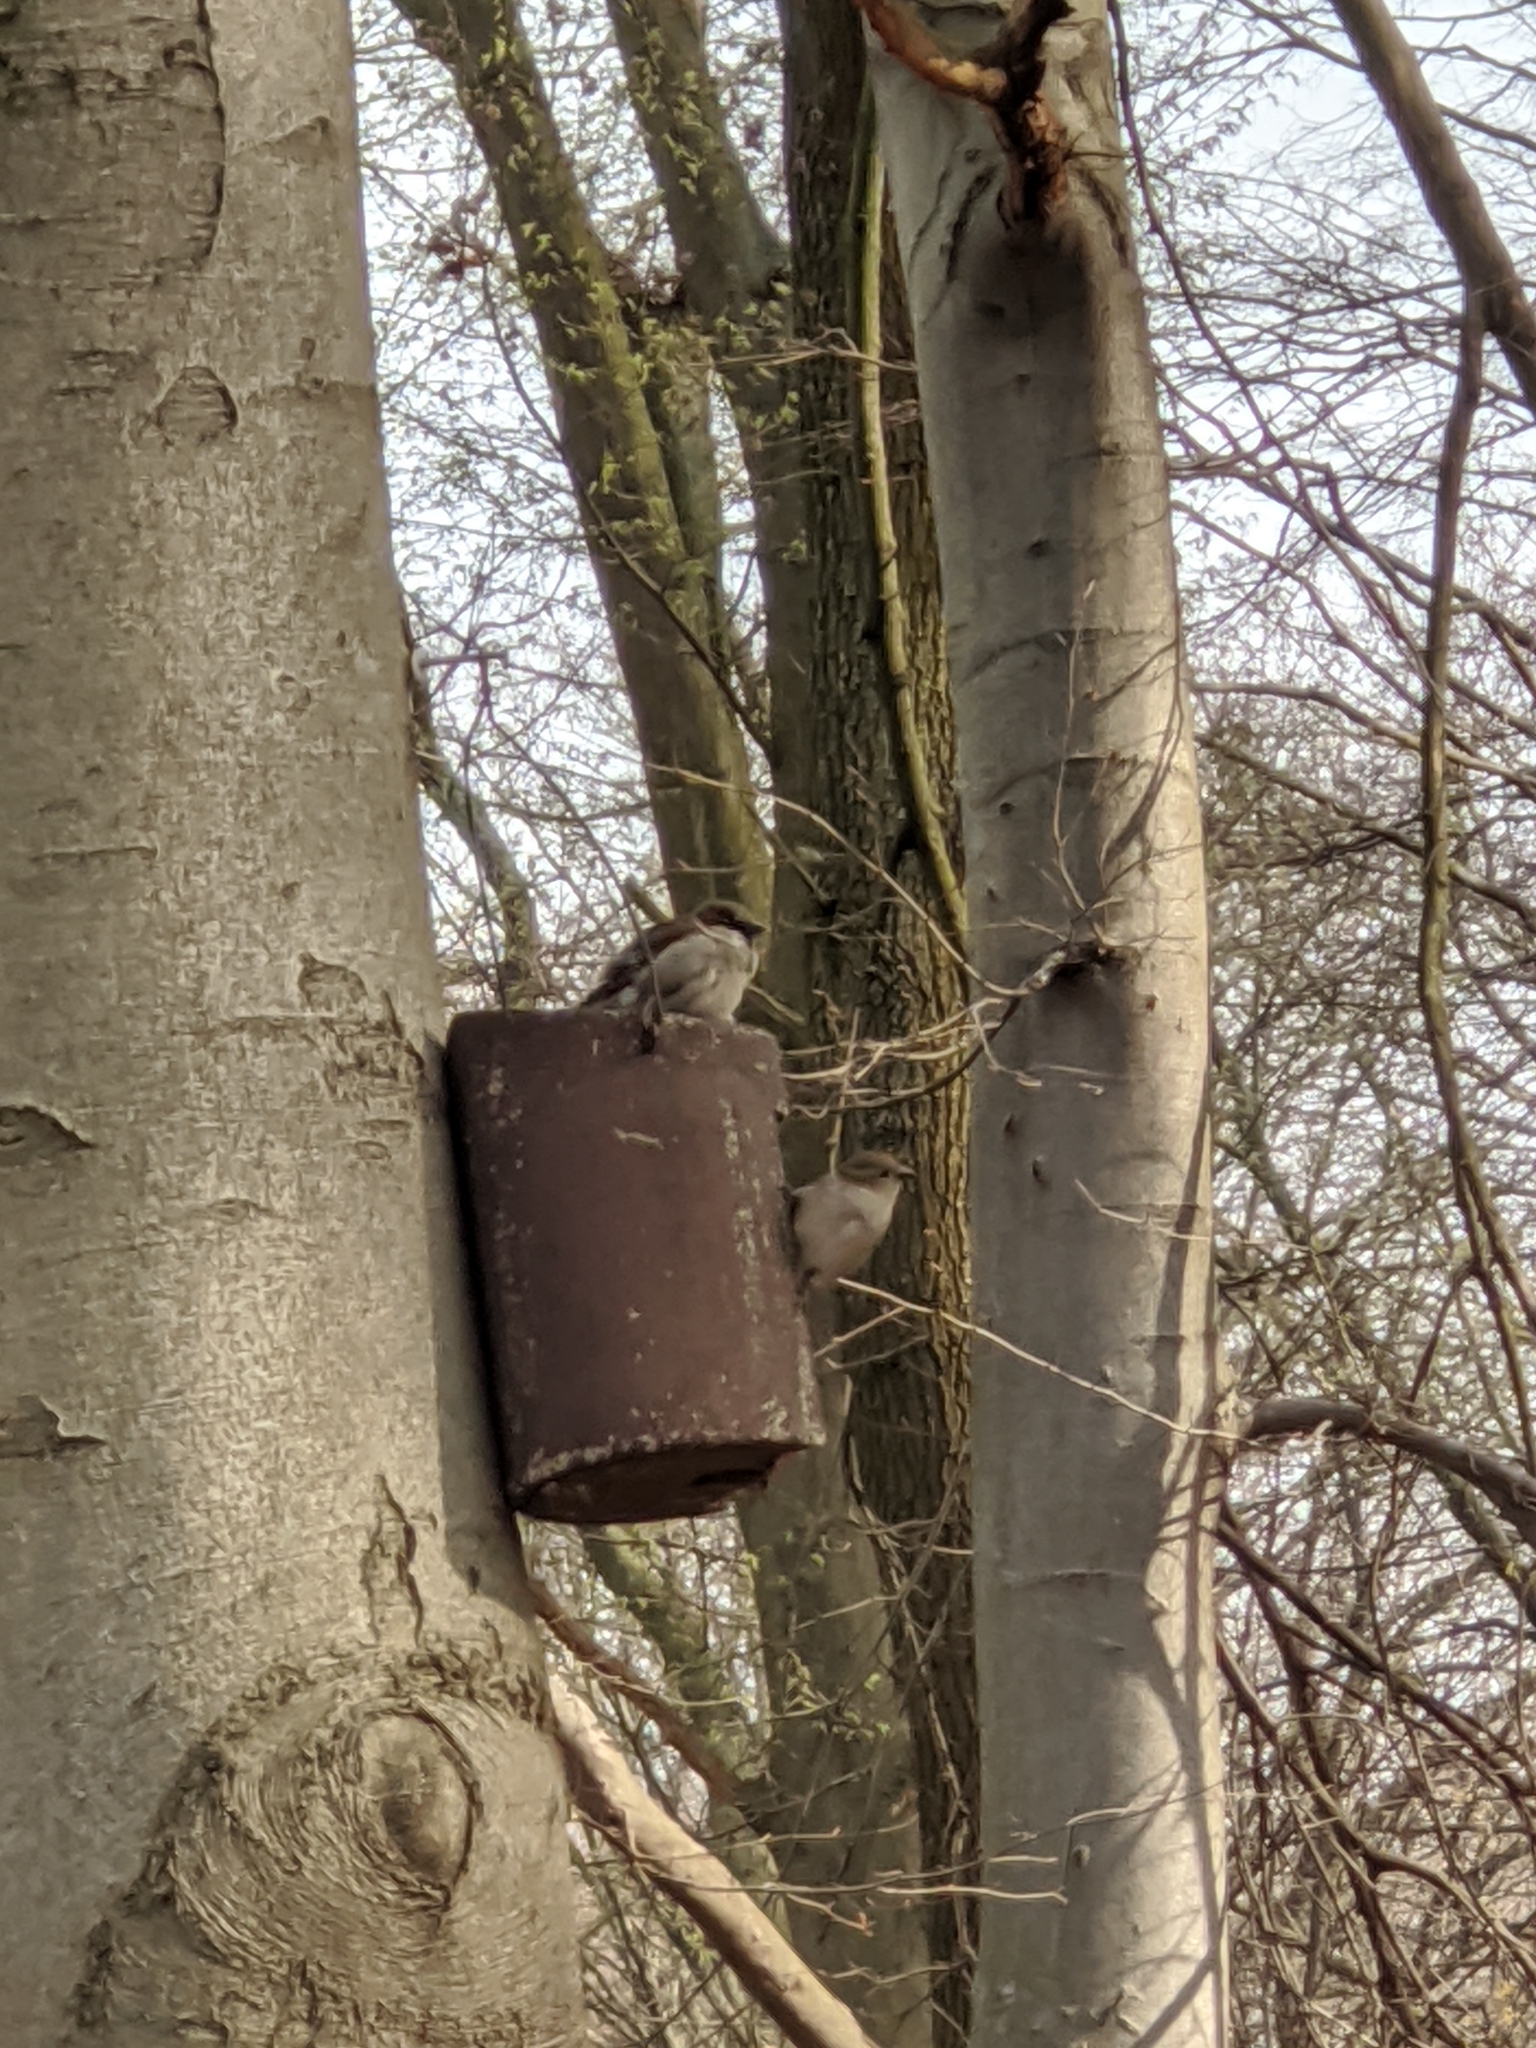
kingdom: Animalia
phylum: Chordata
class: Aves
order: Passeriformes
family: Passeridae
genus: Passer
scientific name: Passer domesticus
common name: House sparrow
